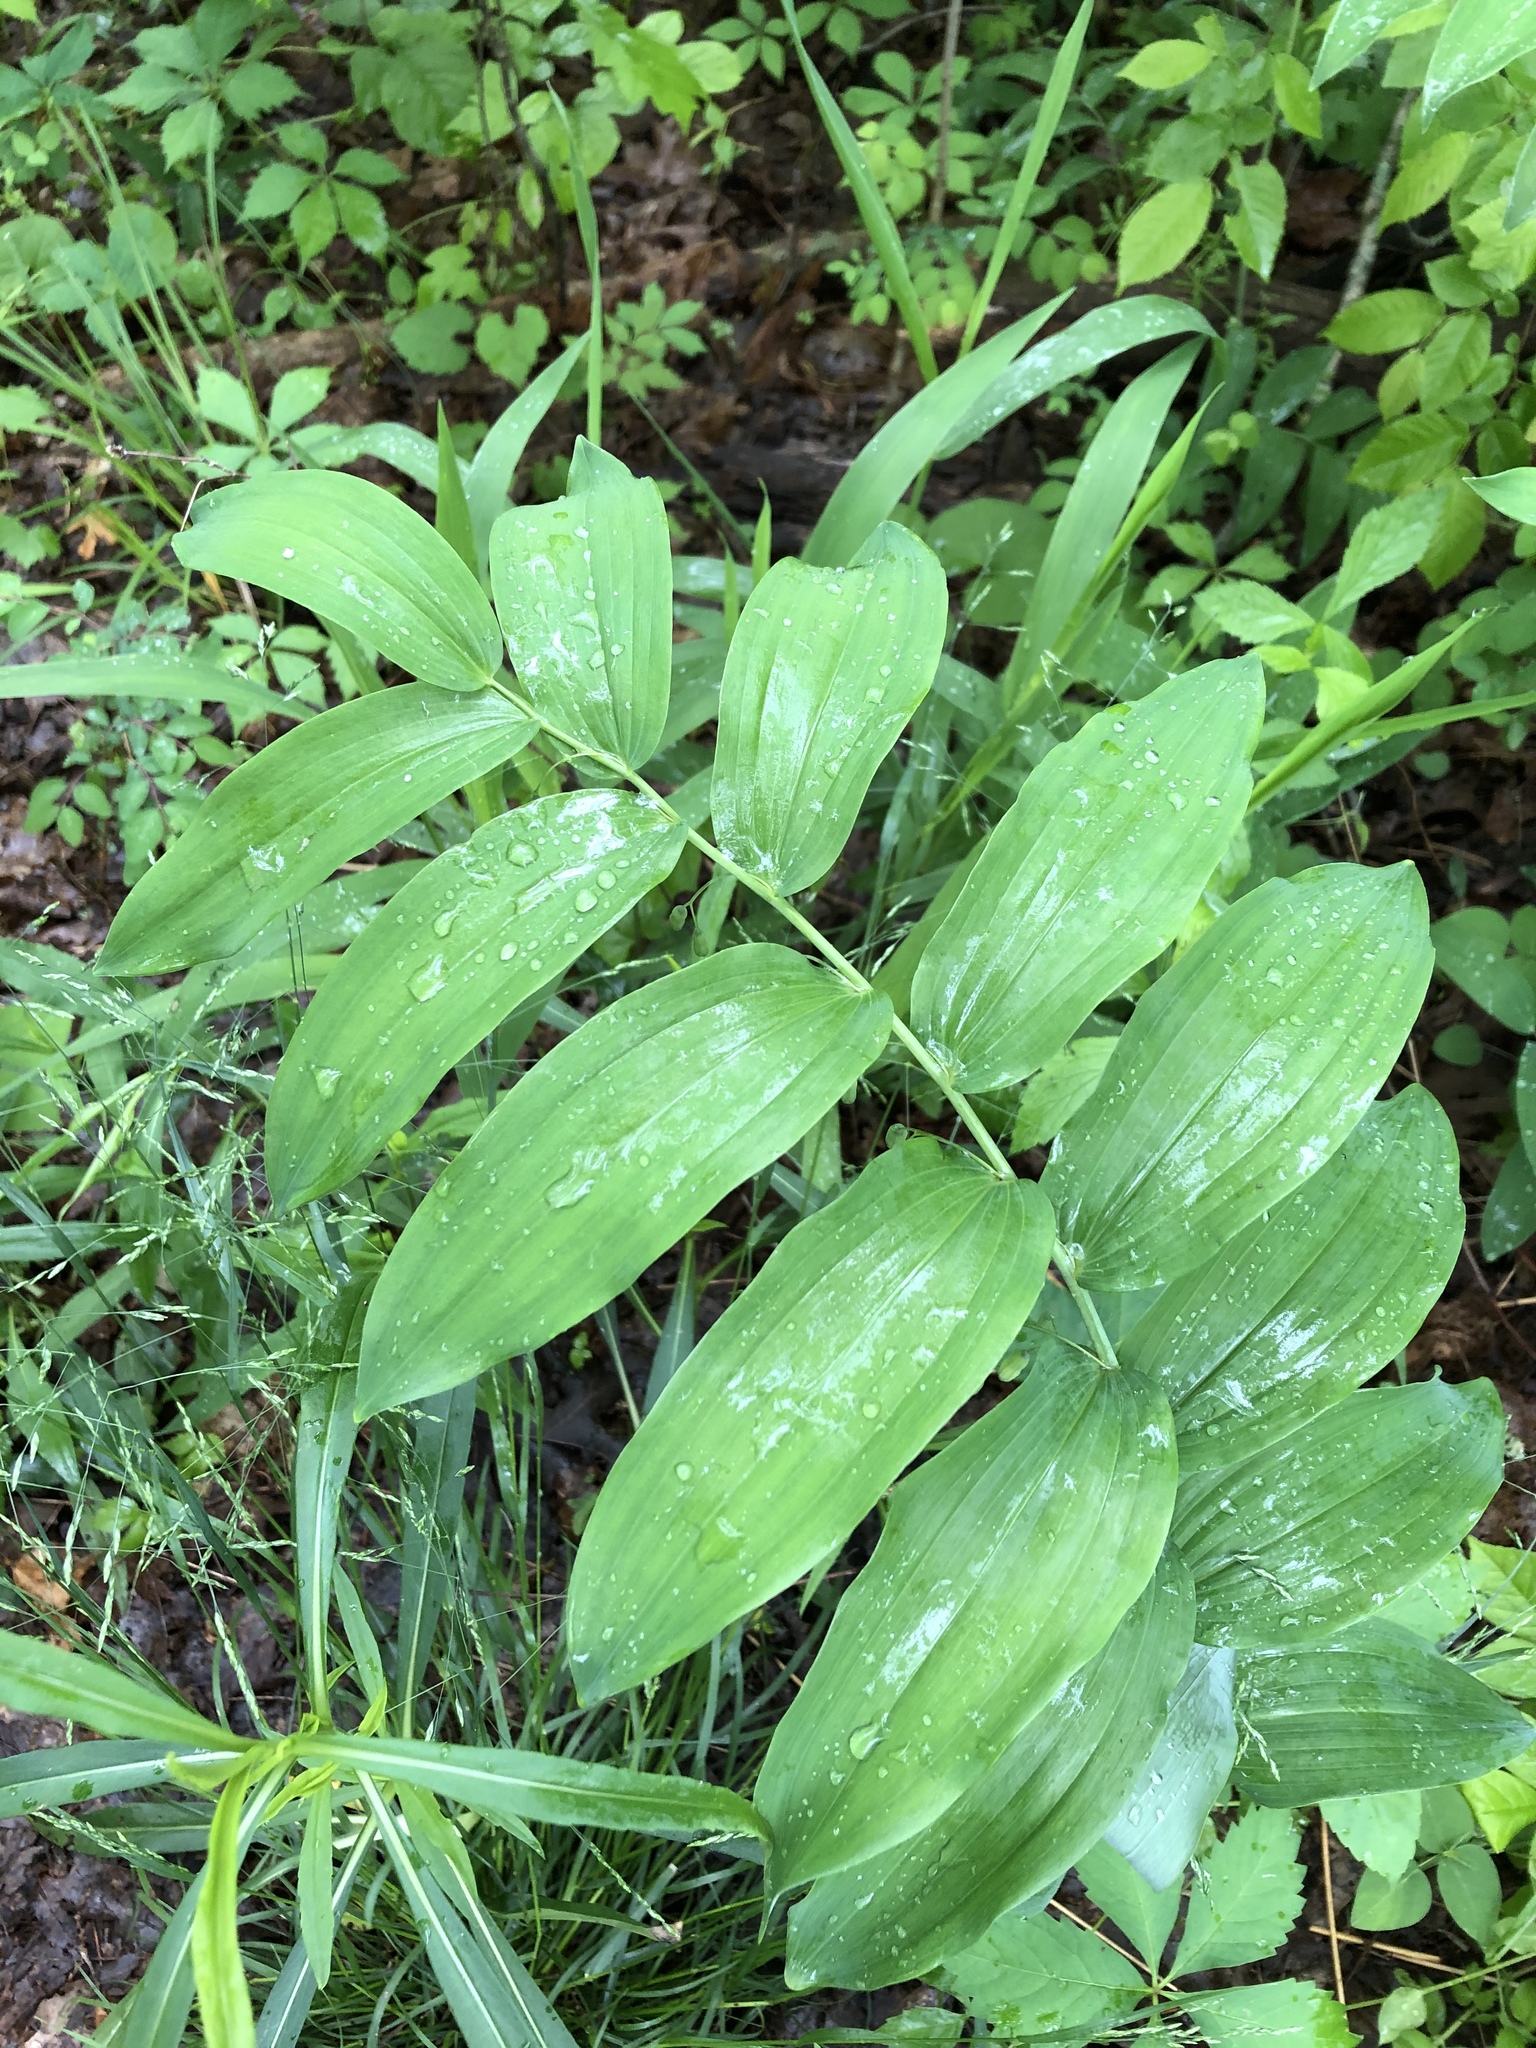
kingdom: Plantae
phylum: Tracheophyta
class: Liliopsida
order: Asparagales
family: Asparagaceae
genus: Polygonatum
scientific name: Polygonatum biflorum
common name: American solomon's-seal
